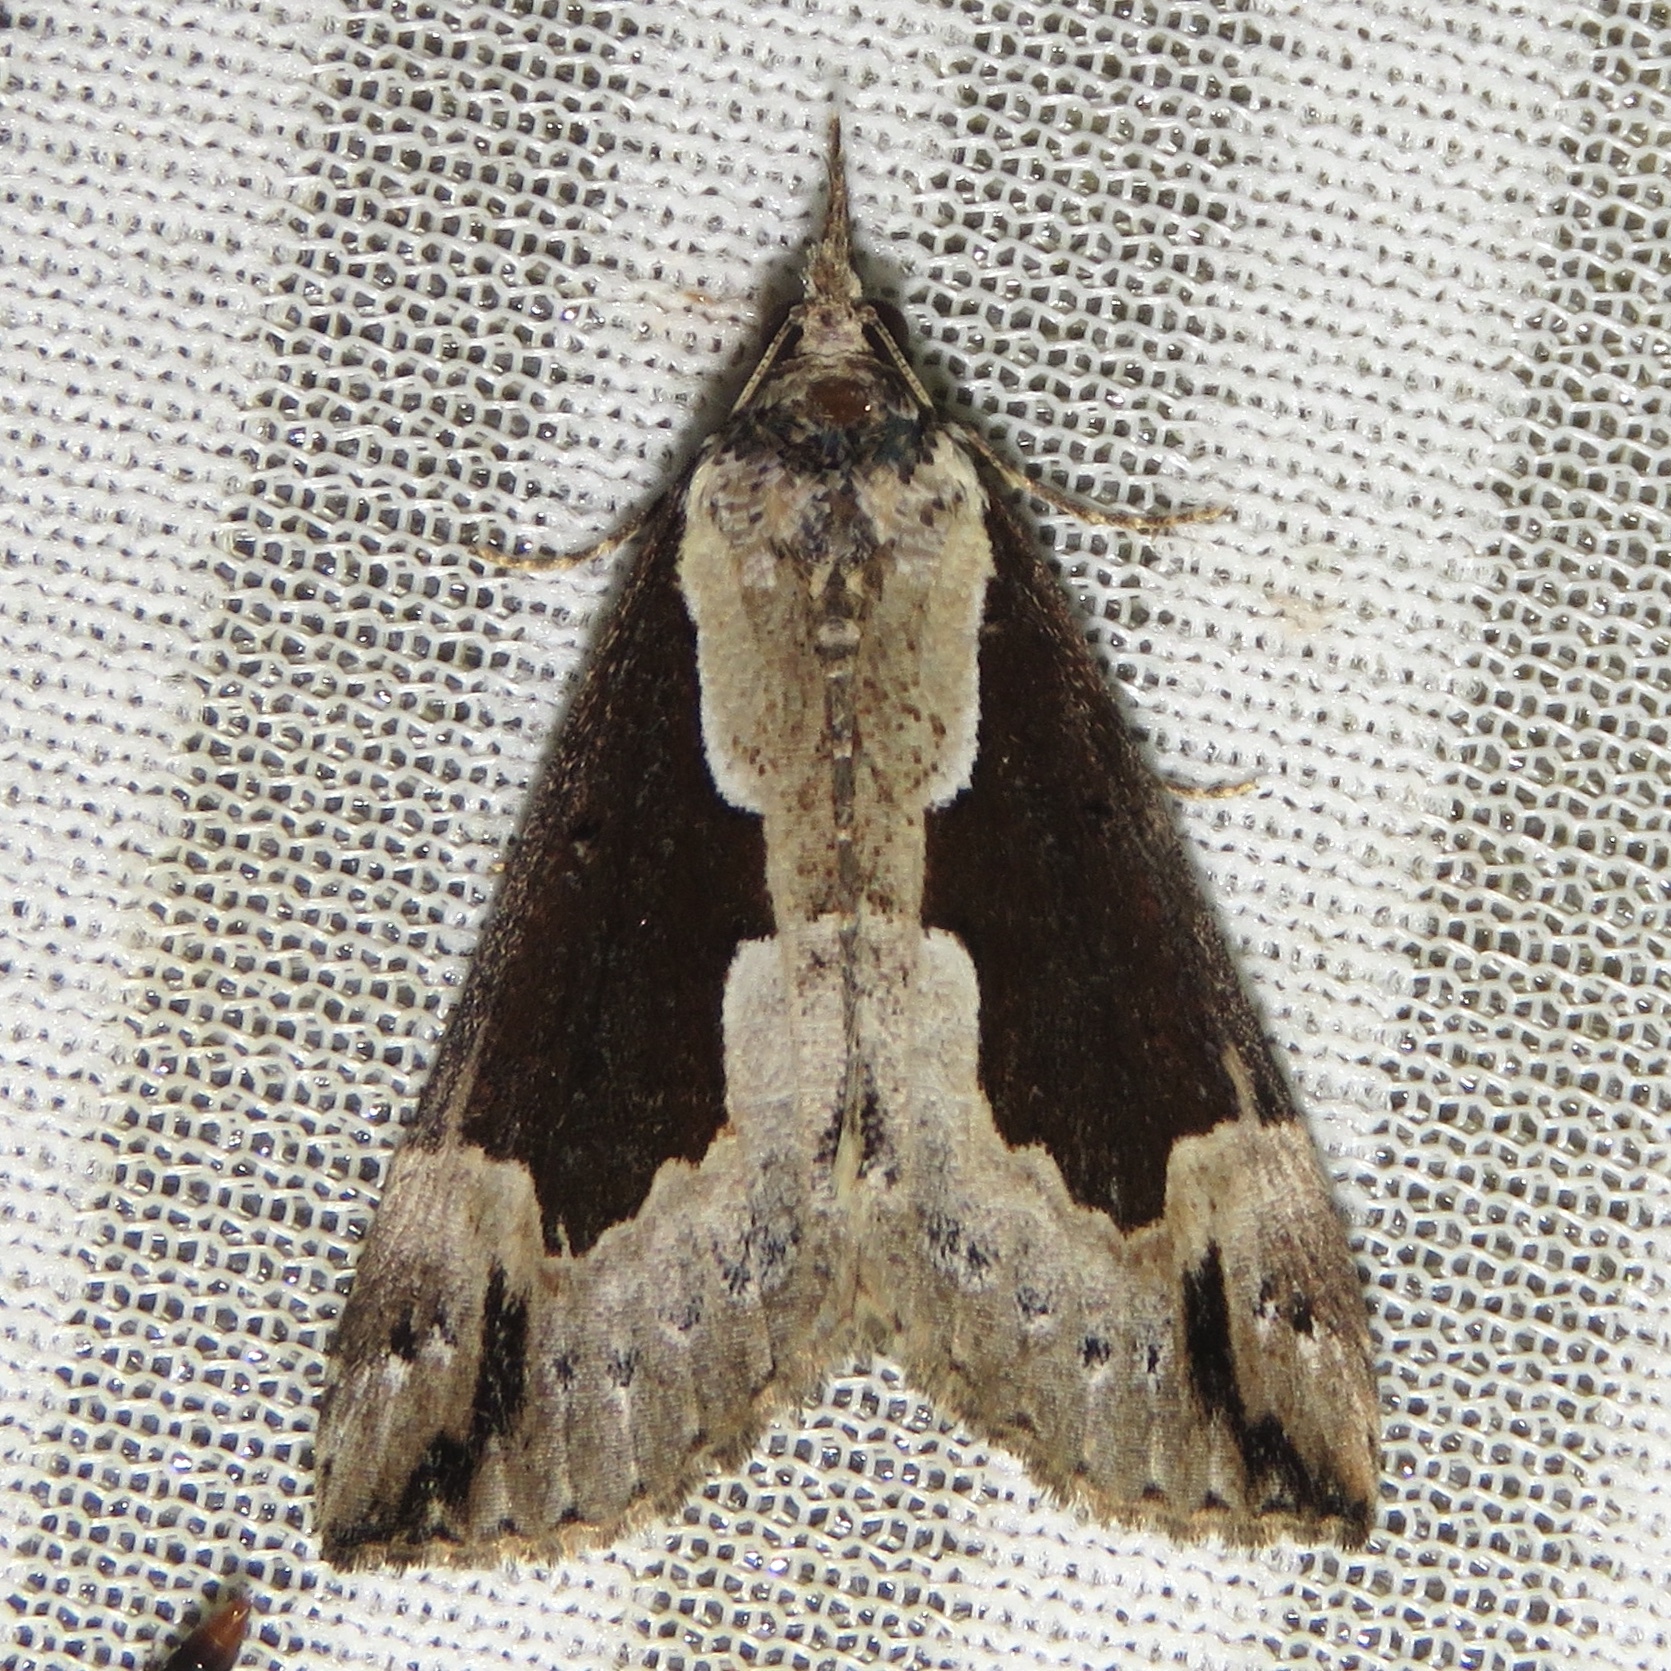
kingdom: Animalia
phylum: Arthropoda
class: Insecta
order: Lepidoptera
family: Erebidae
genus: Hypena
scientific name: Hypena baltimoralis
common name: Baltimore snout
